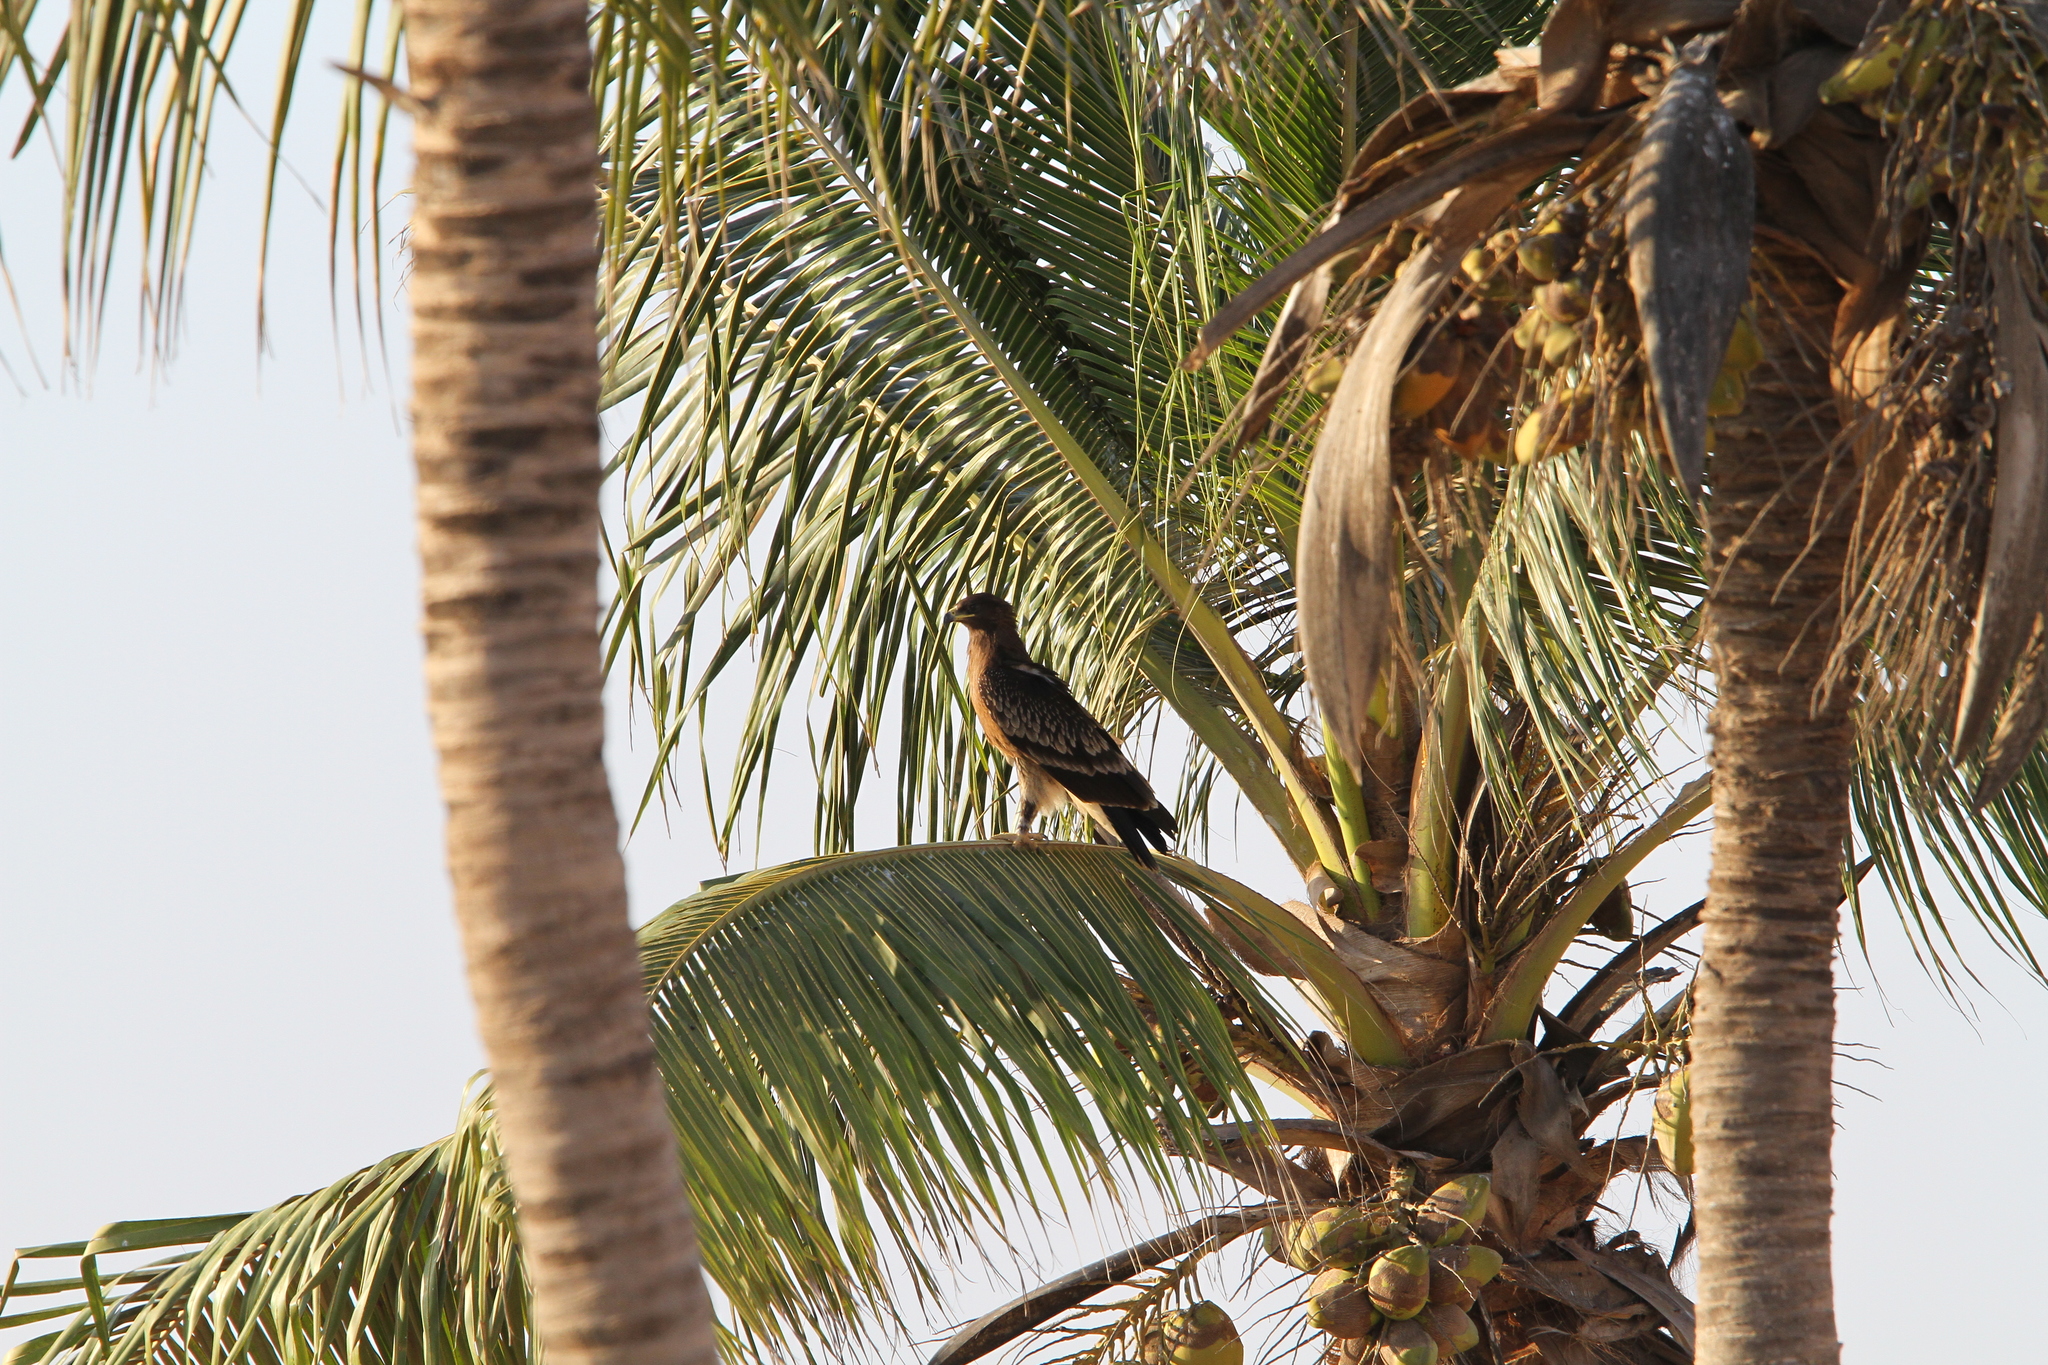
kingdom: Animalia
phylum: Chordata
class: Aves
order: Accipitriformes
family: Accipitridae
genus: Aquila
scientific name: Aquila clanga
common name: Greater spotted eagle
